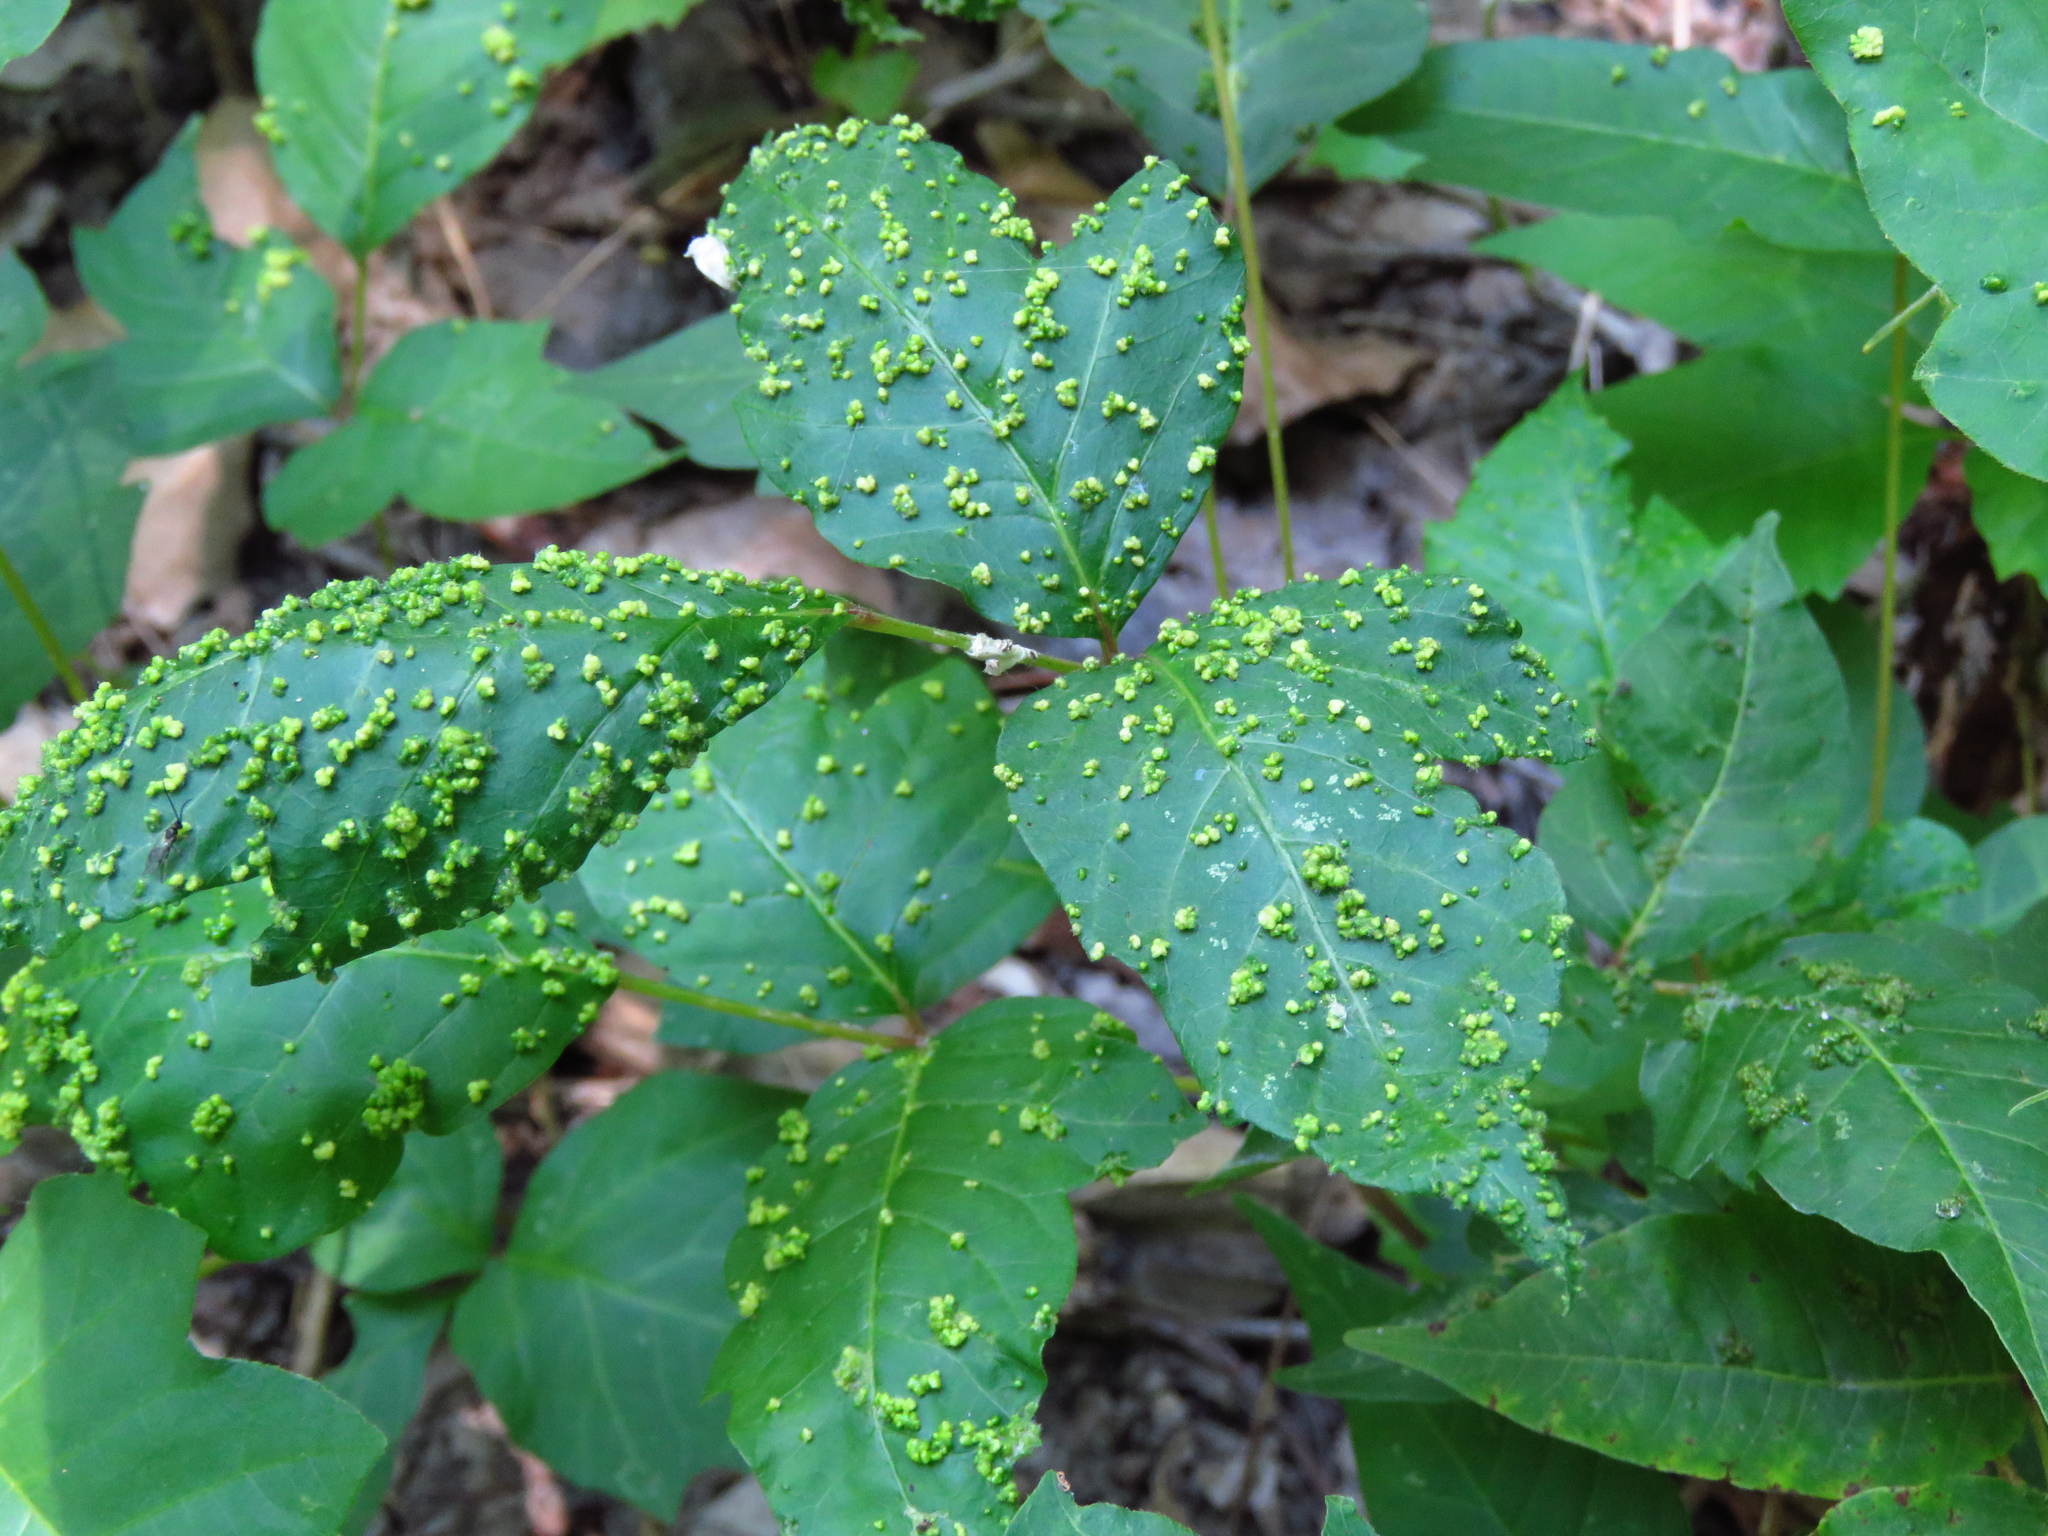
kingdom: Animalia
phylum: Arthropoda
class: Arachnida
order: Trombidiformes
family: Eriophyidae
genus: Aculops
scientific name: Aculops
